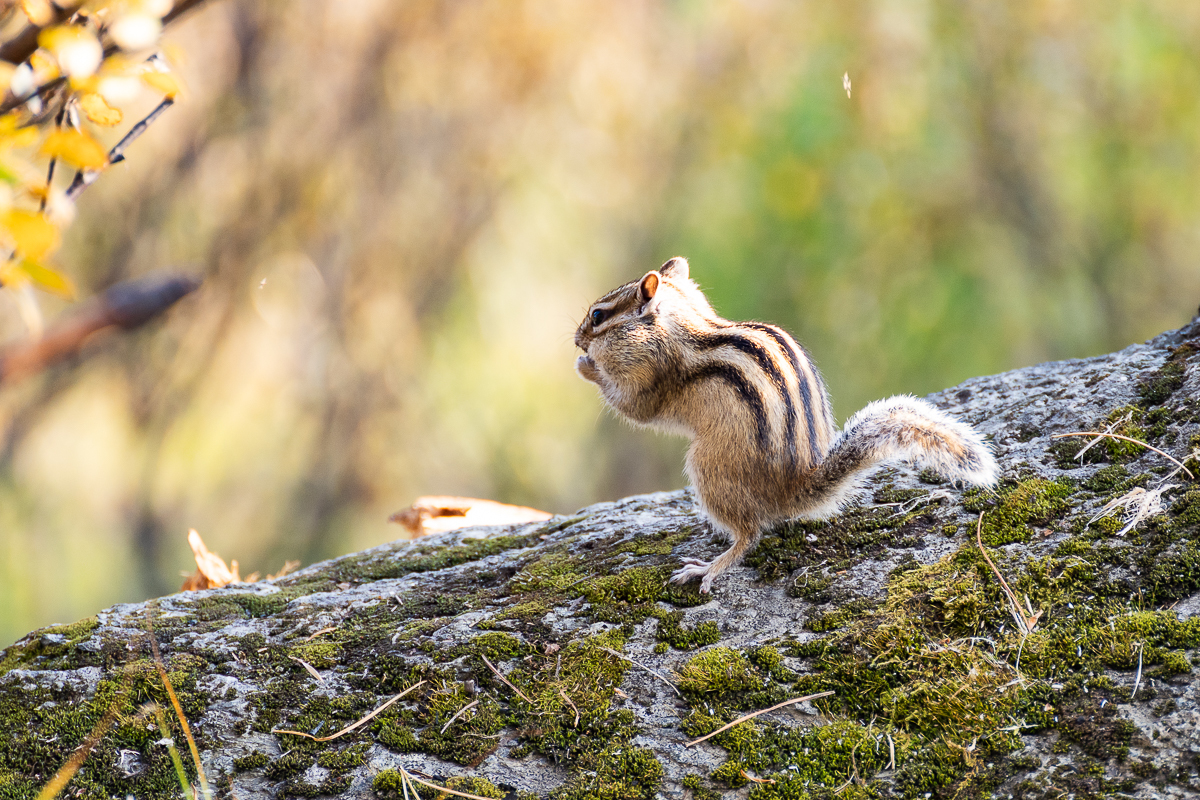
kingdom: Animalia
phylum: Chordata
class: Mammalia
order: Rodentia
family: Sciuridae
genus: Tamias
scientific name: Tamias sibiricus
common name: Siberian chipmunk
